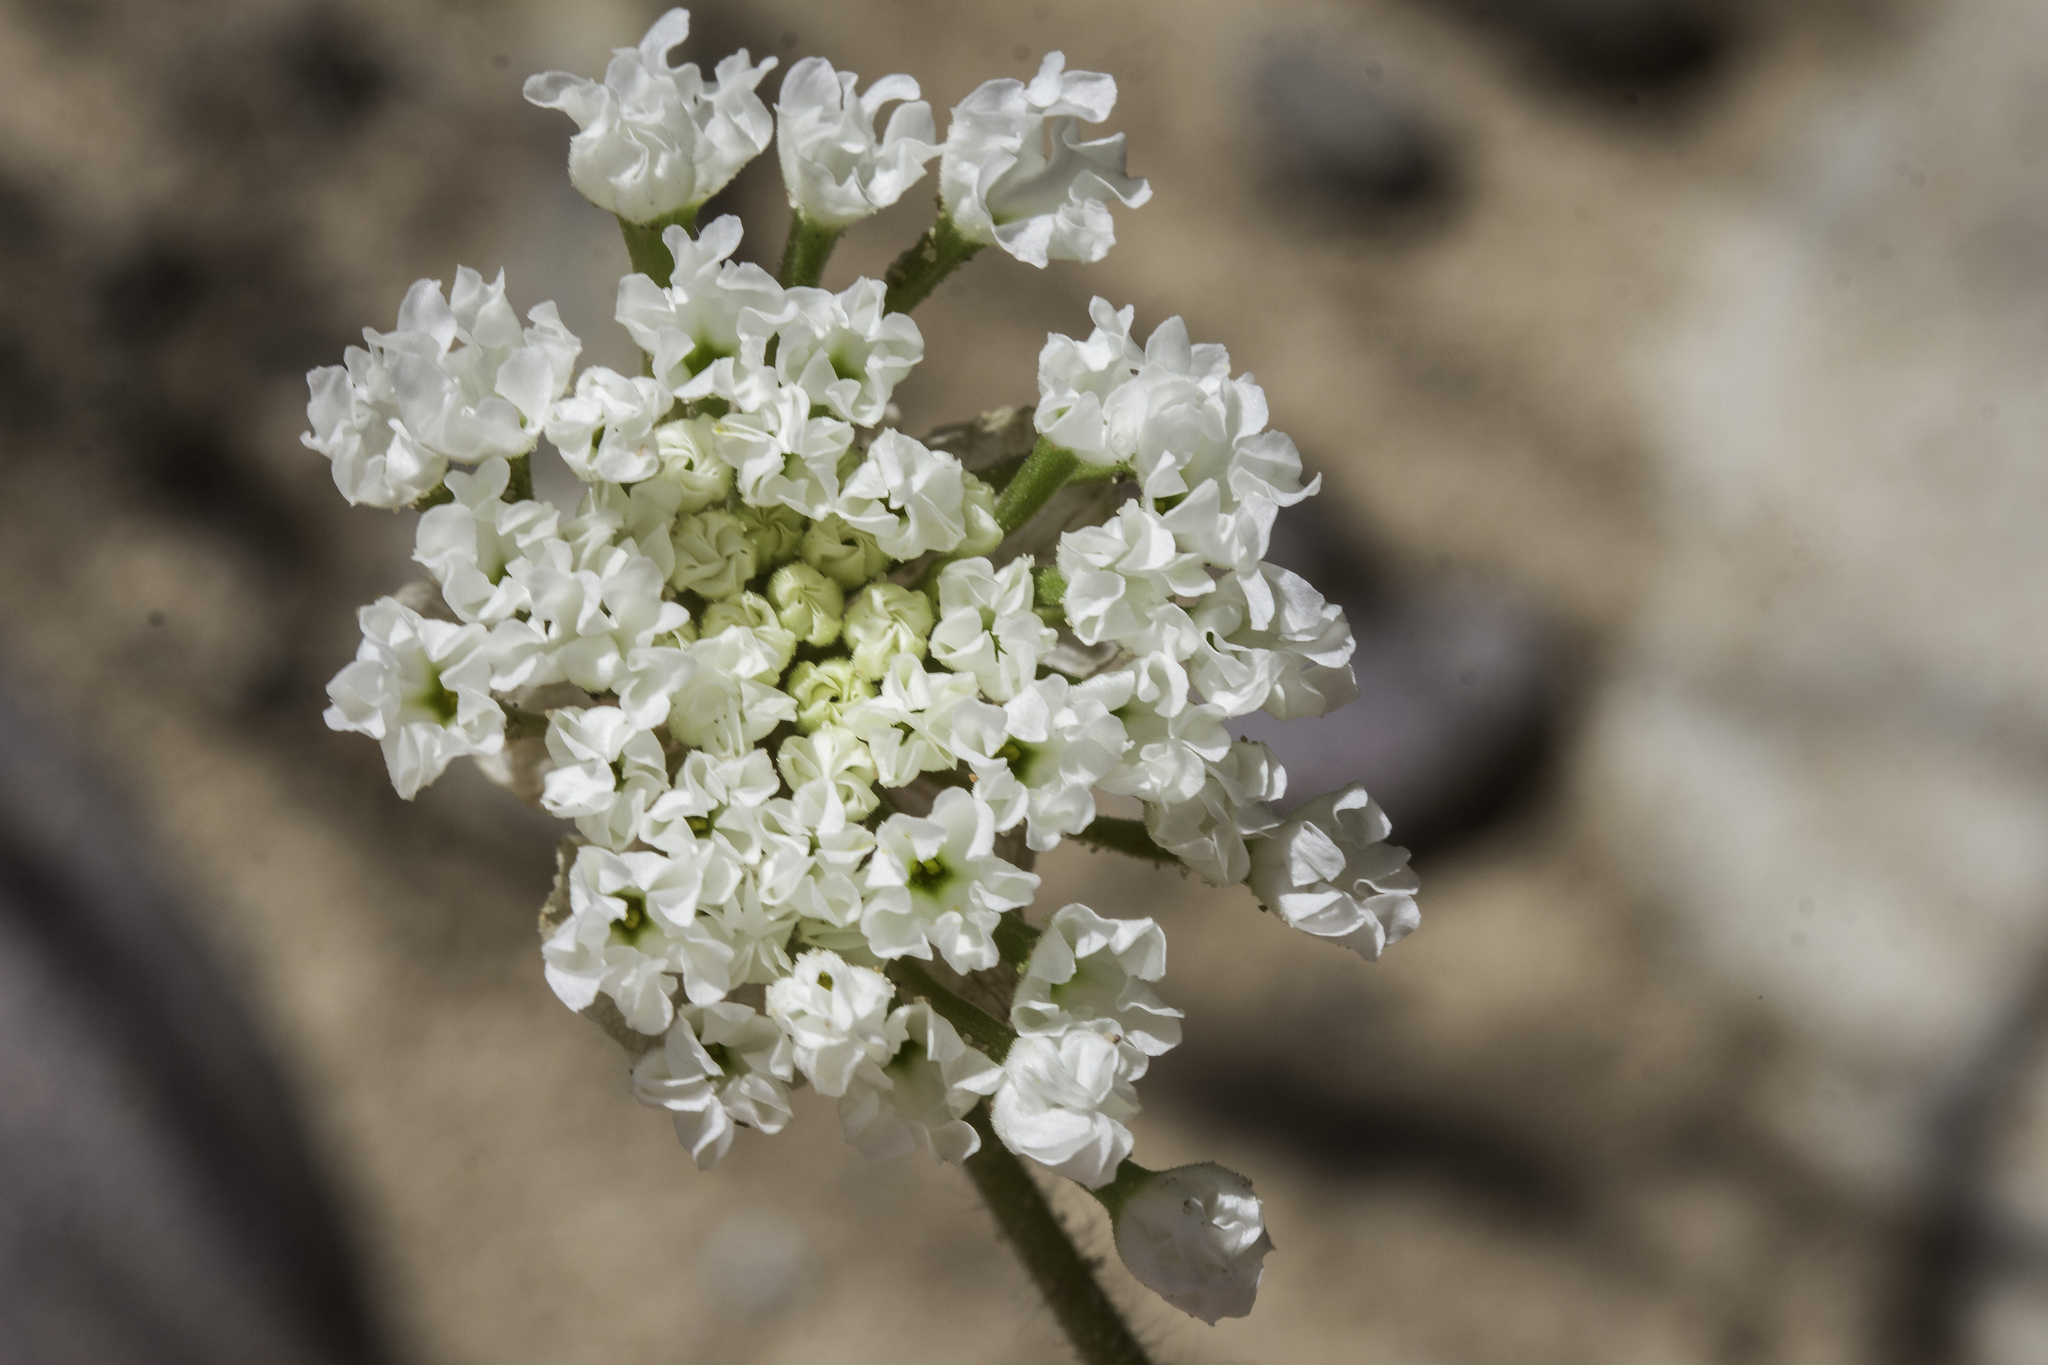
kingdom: Plantae
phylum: Tracheophyta
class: Magnoliopsida
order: Caryophyllales
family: Nyctaginaceae
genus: Abronia
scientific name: Abronia fragrans
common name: Fragrant sand-verbena
